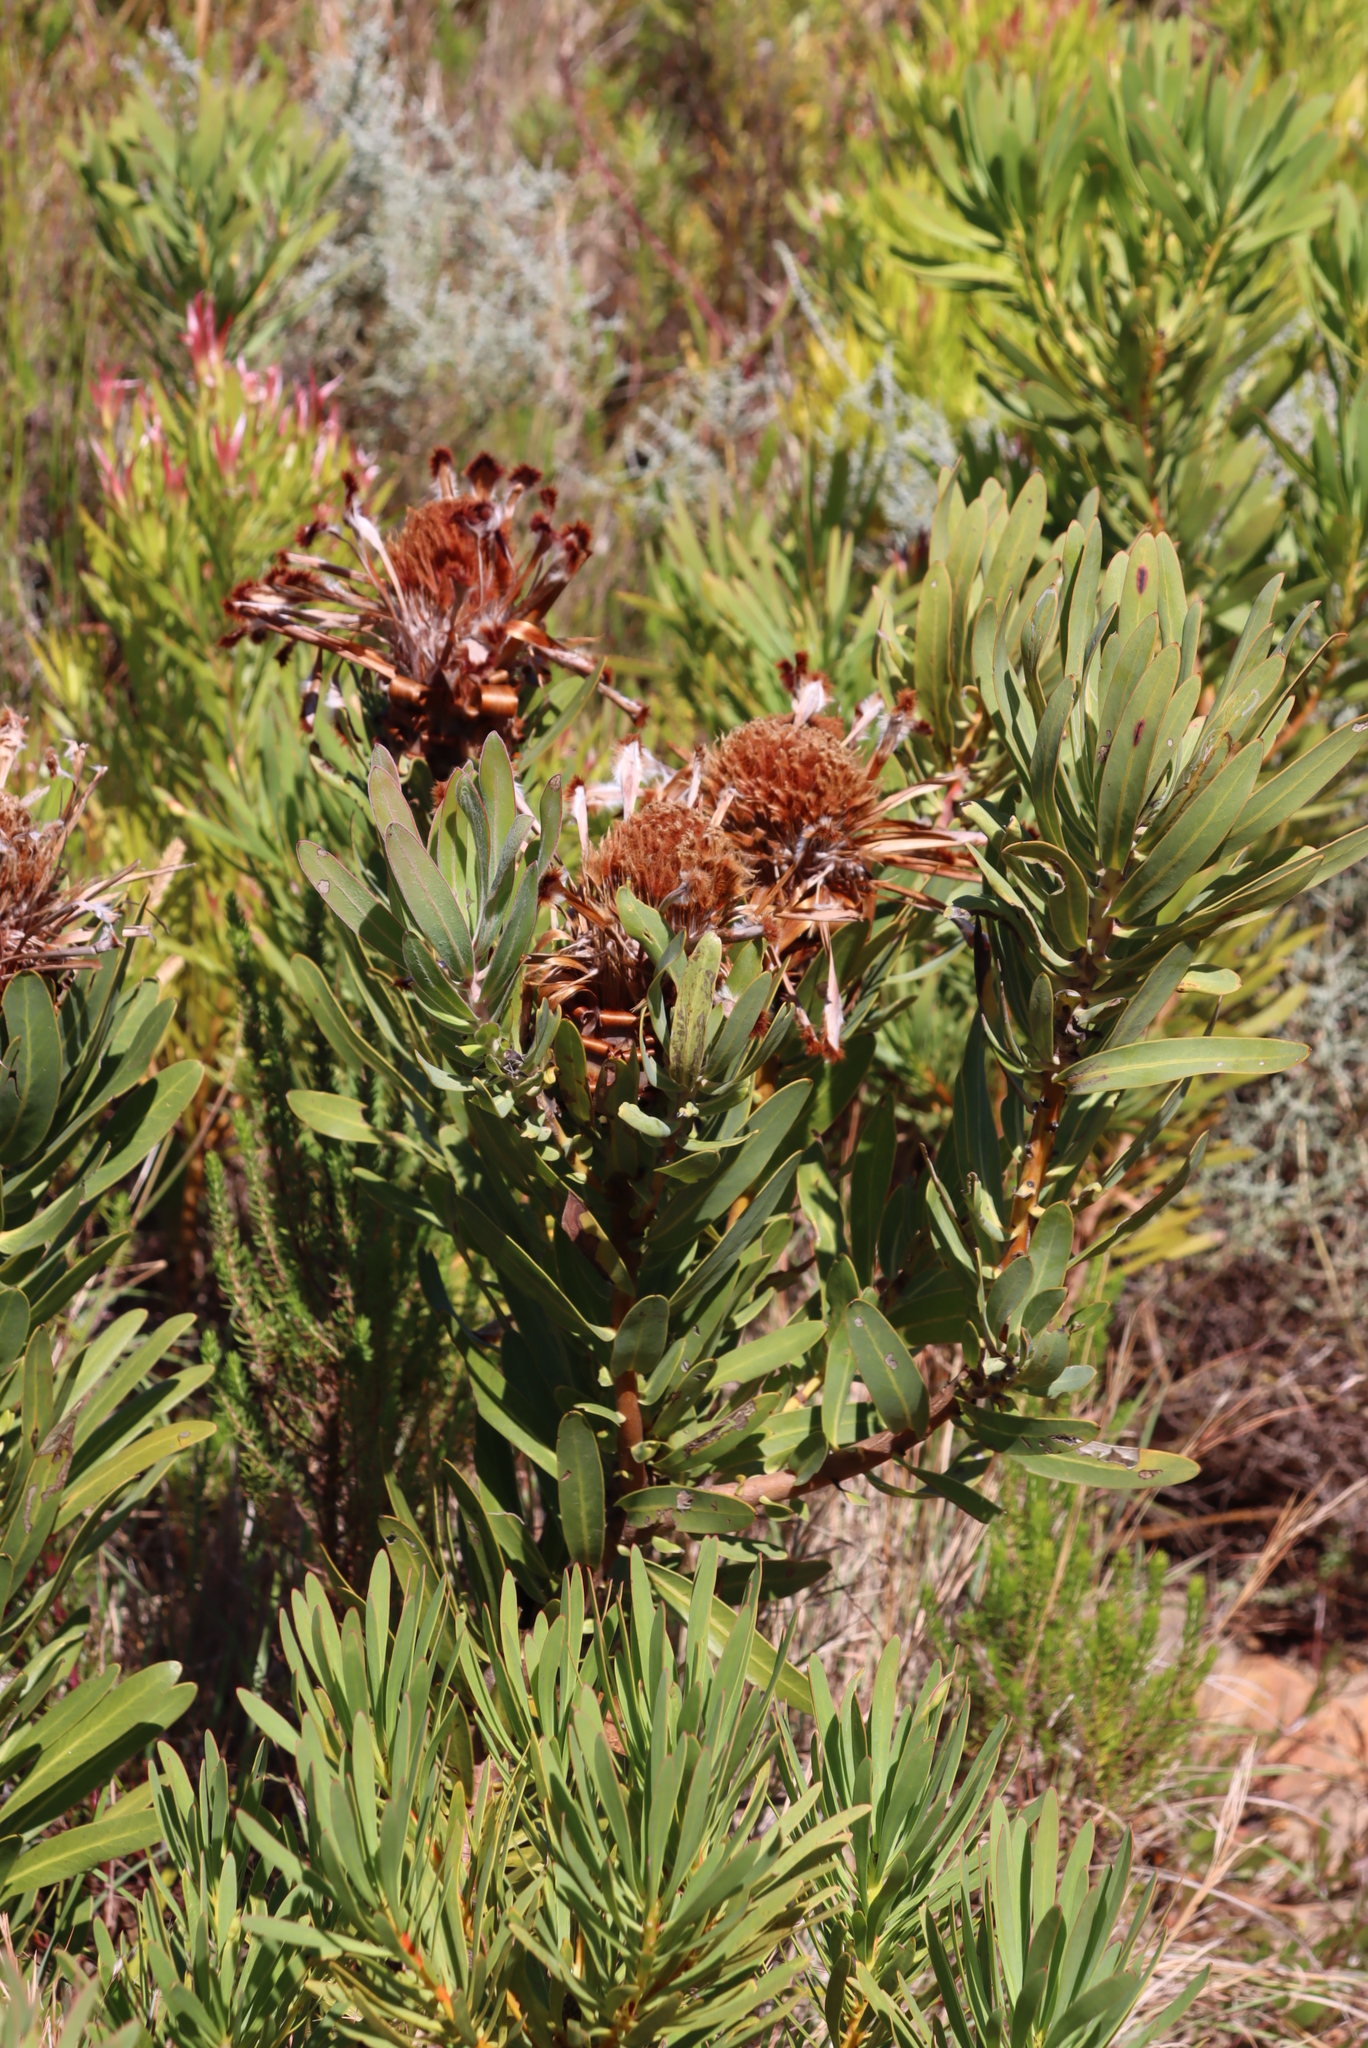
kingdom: Plantae
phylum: Tracheophyta
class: Magnoliopsida
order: Proteales
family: Proteaceae
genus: Protea
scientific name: Protea laurifolia
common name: Grey-leaf sugarbsh
